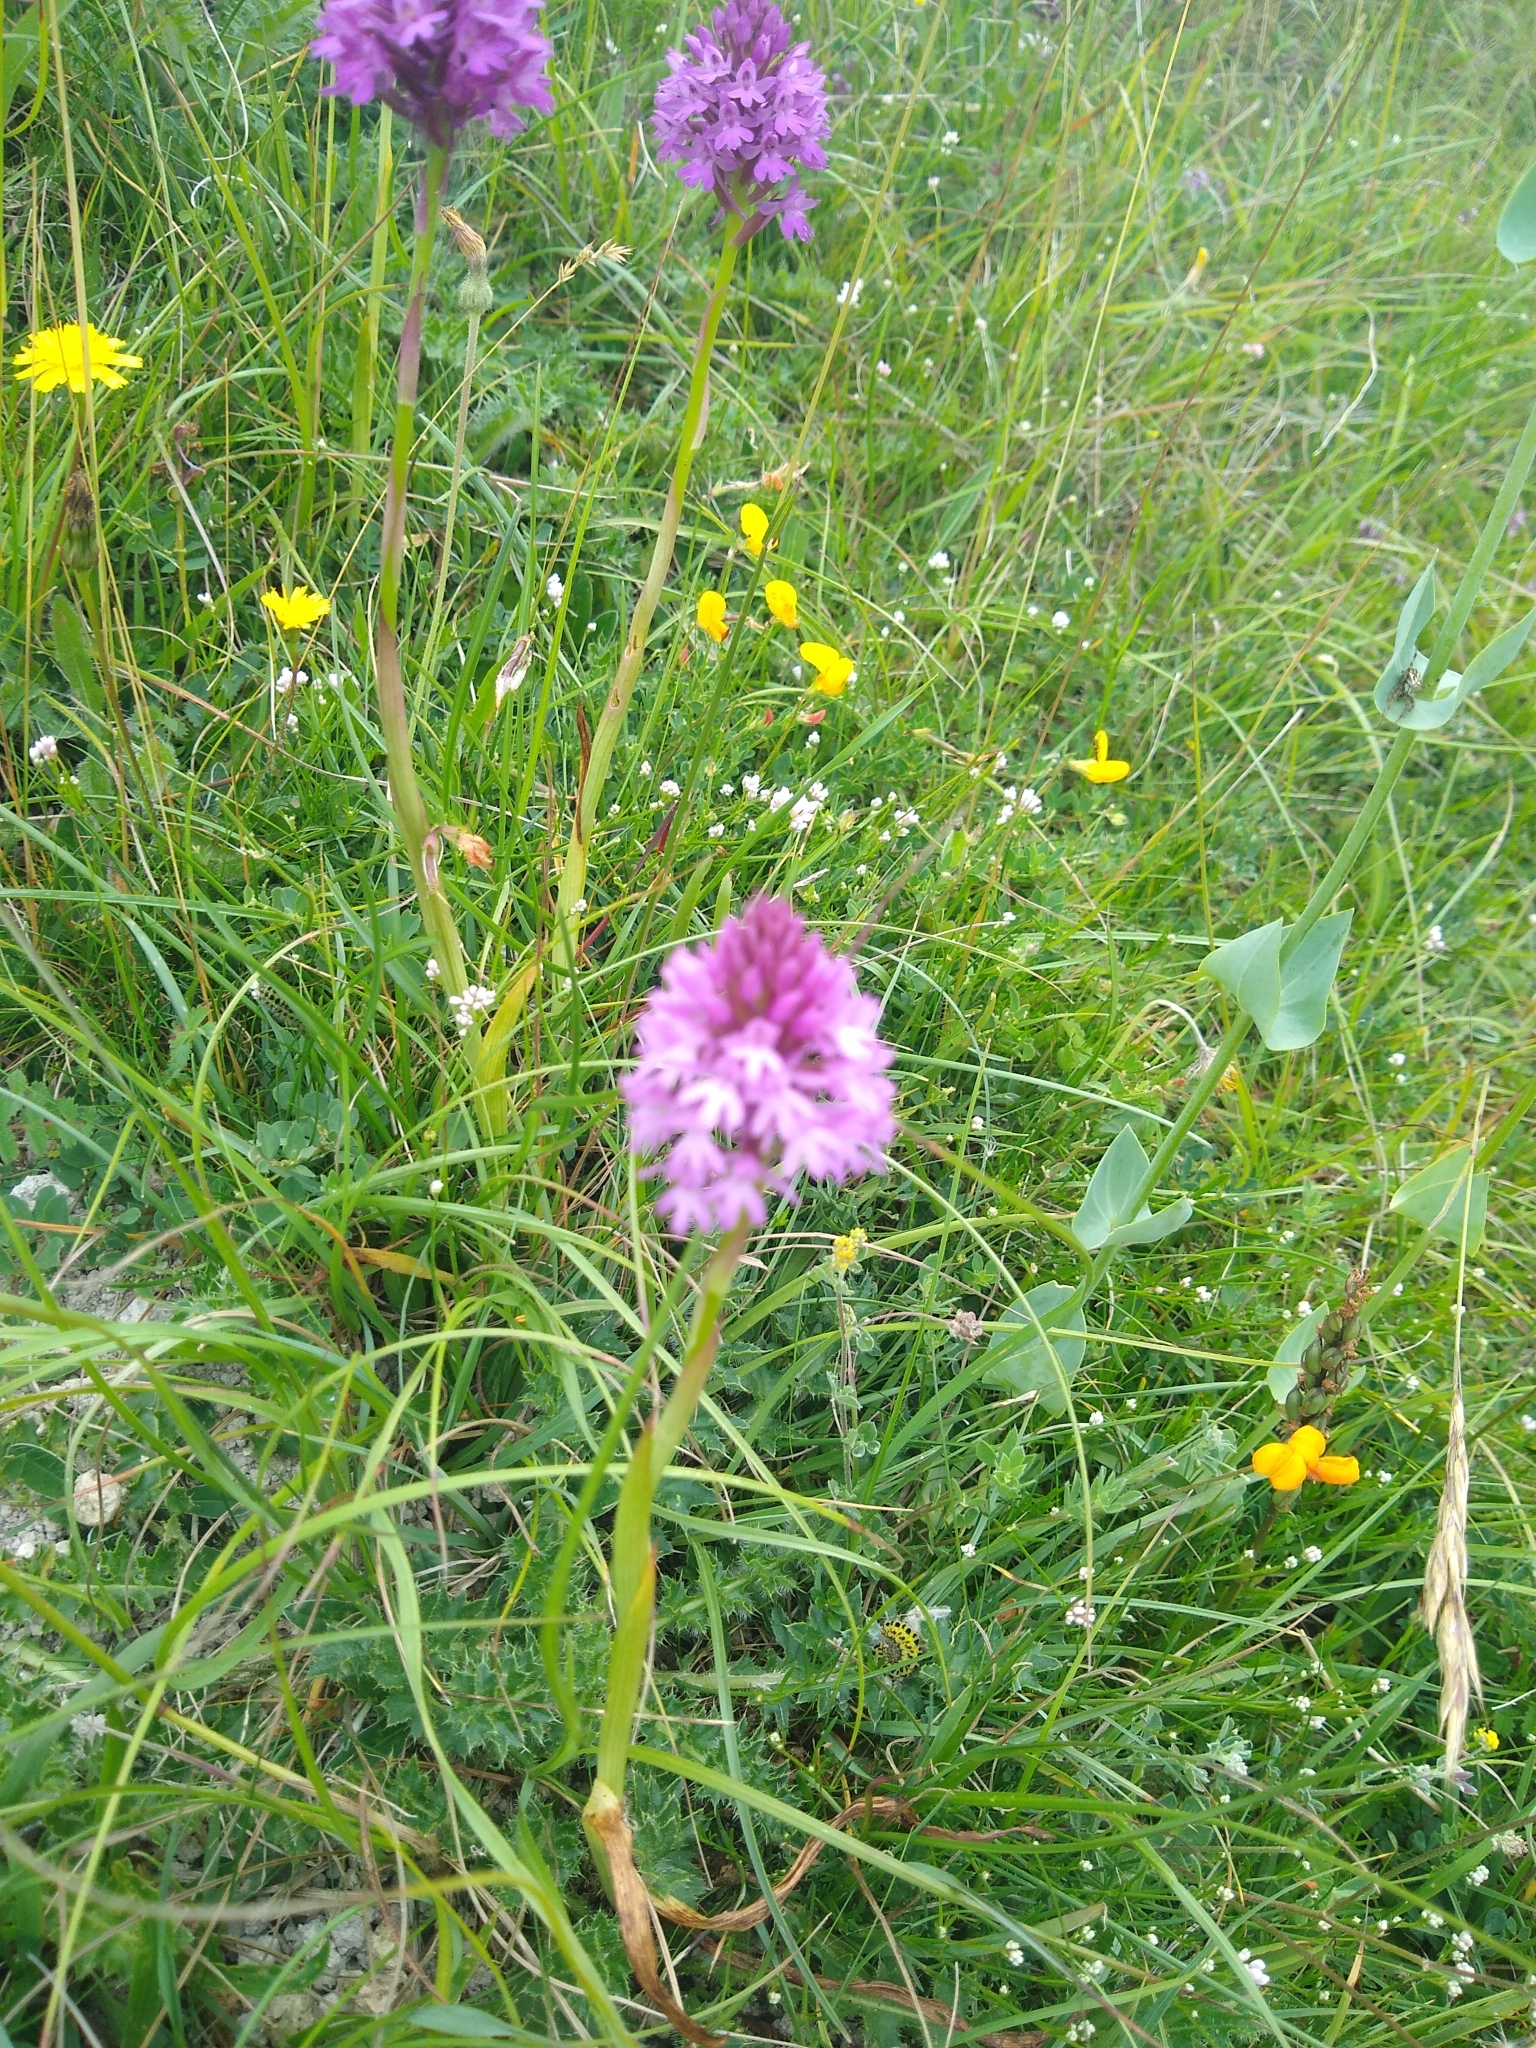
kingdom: Plantae
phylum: Tracheophyta
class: Liliopsida
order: Asparagales
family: Orchidaceae
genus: Anacamptis
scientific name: Anacamptis pyramidalis
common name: Pyramidal orchid
